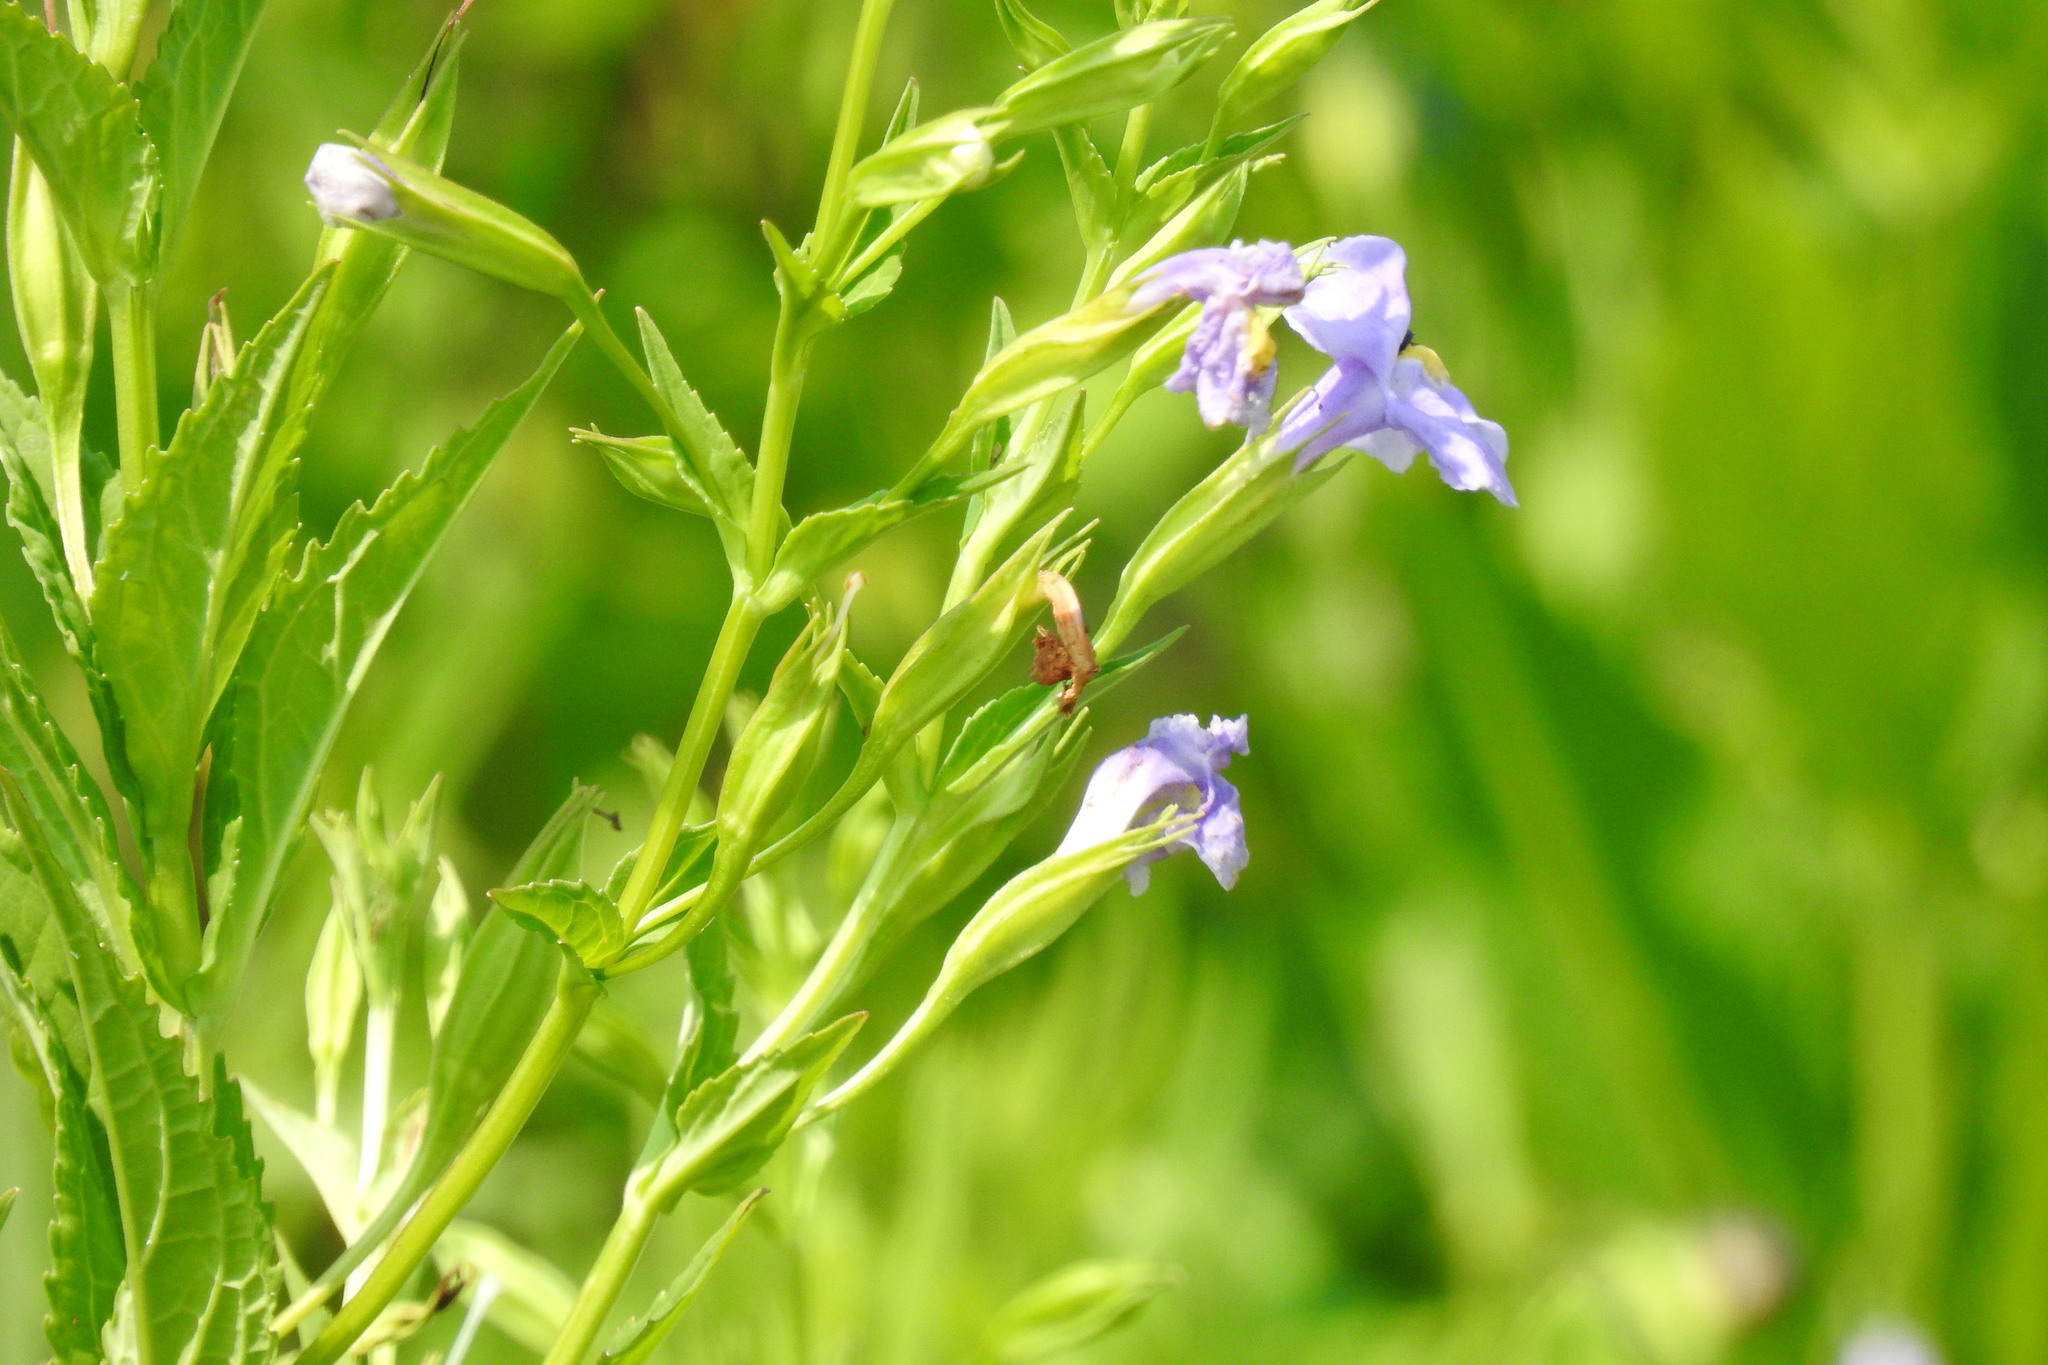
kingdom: Plantae
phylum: Tracheophyta
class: Magnoliopsida
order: Lamiales
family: Phrymaceae
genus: Mimulus
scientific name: Mimulus ringens
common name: Allegheny monkeyflower
